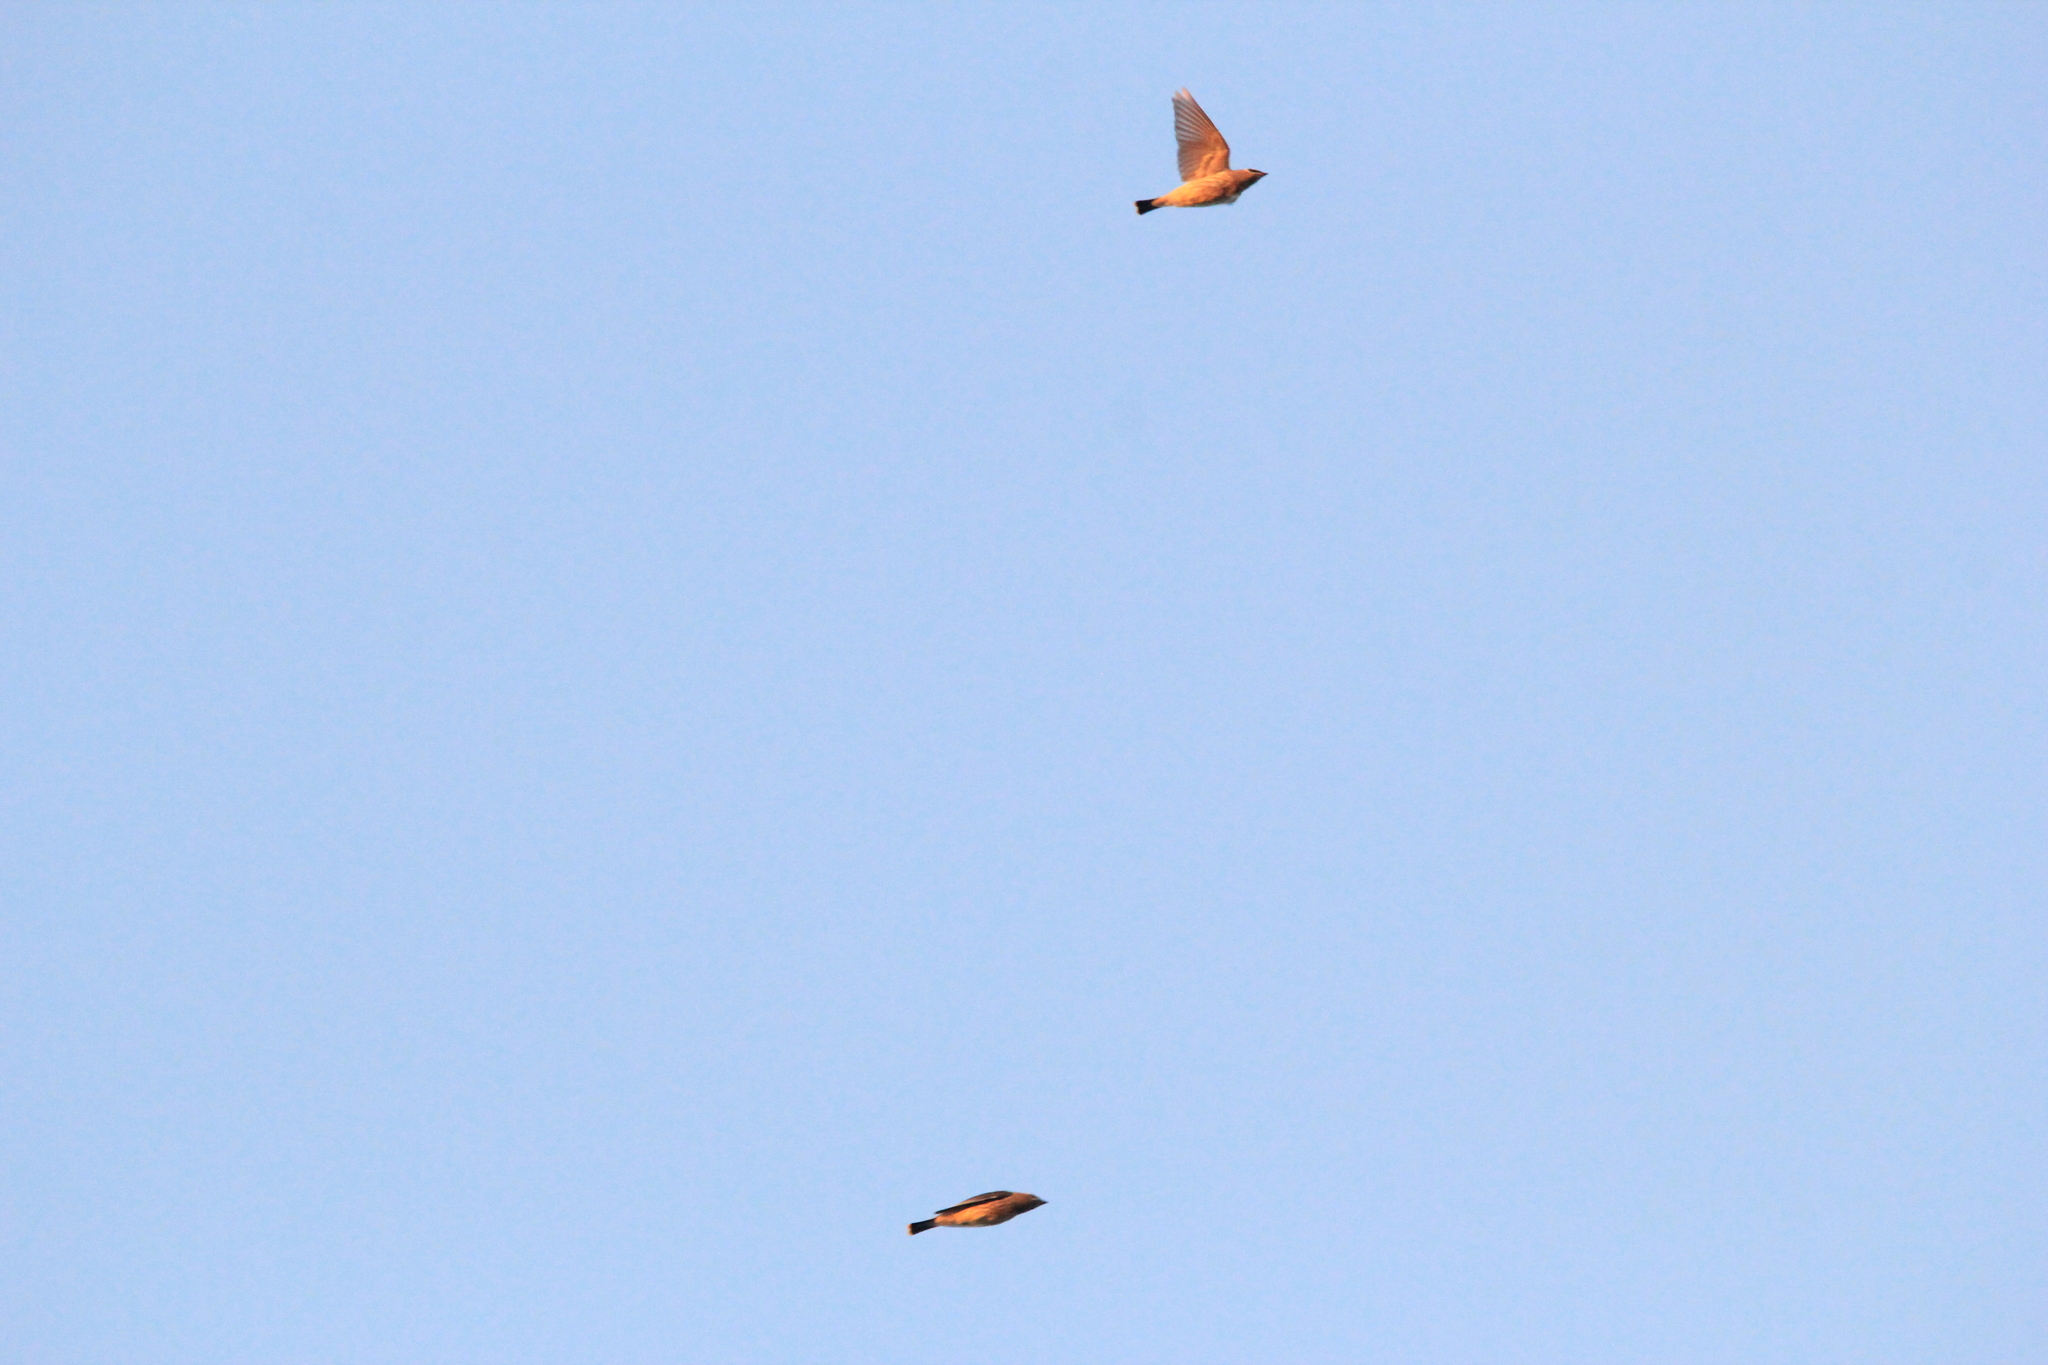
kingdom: Animalia
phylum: Chordata
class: Aves
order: Passeriformes
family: Bombycillidae
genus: Bombycilla
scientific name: Bombycilla cedrorum
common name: Cedar waxwing
